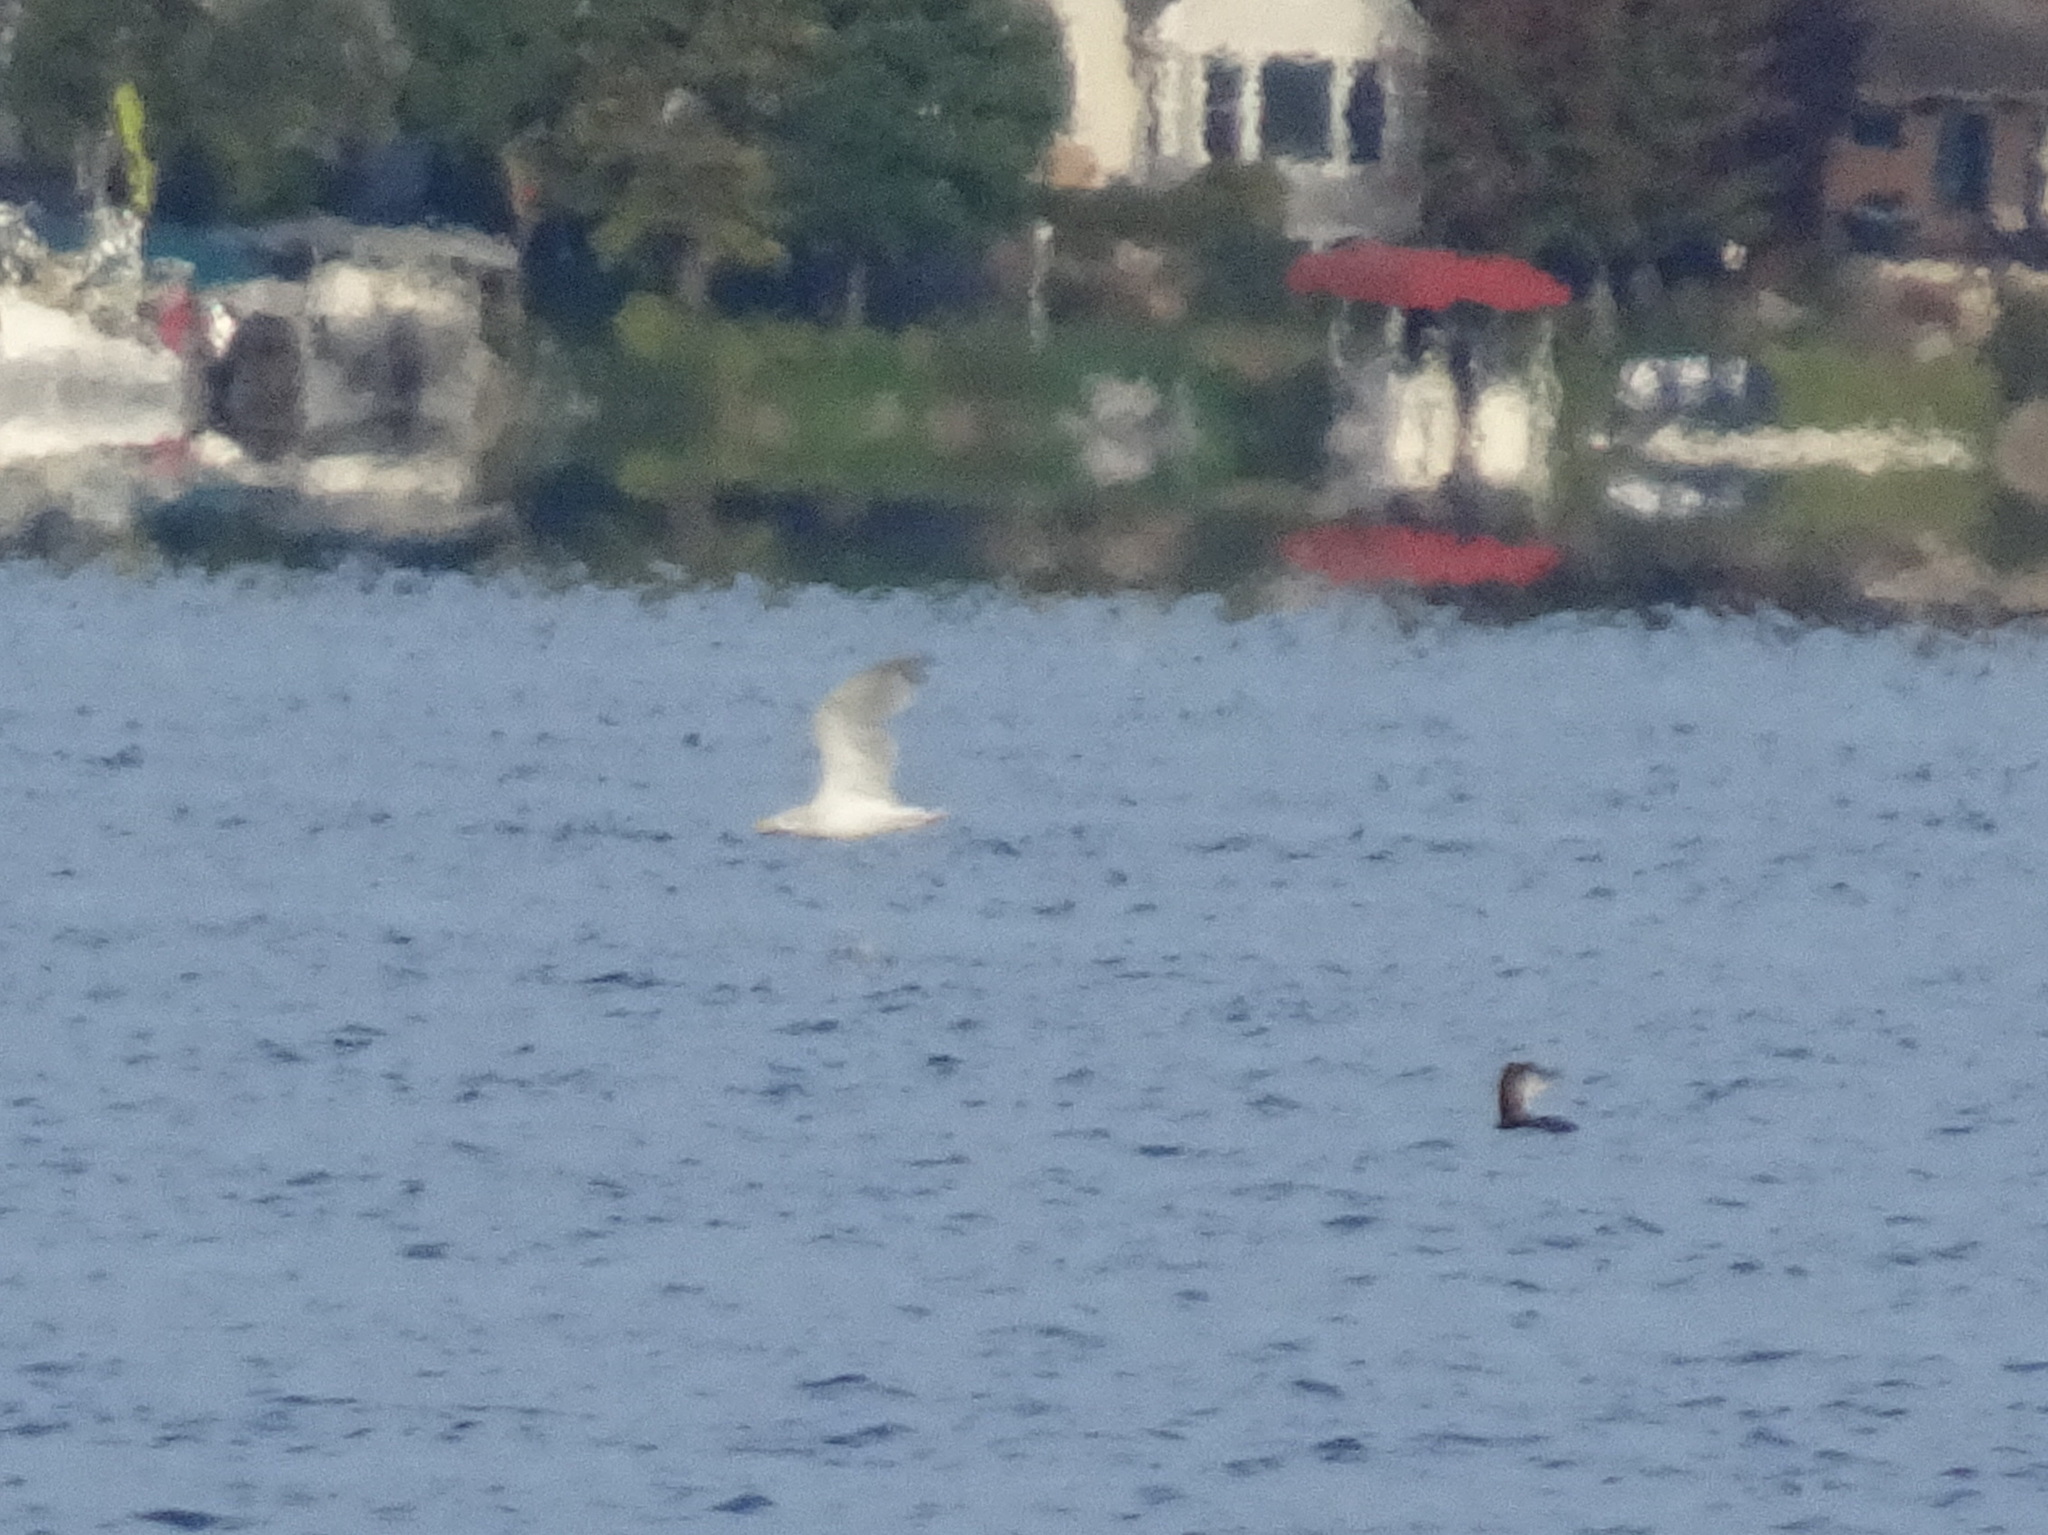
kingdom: Animalia
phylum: Chordata
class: Aves
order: Charadriiformes
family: Laridae
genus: Larus
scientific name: Larus argentatus
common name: Herring gull
